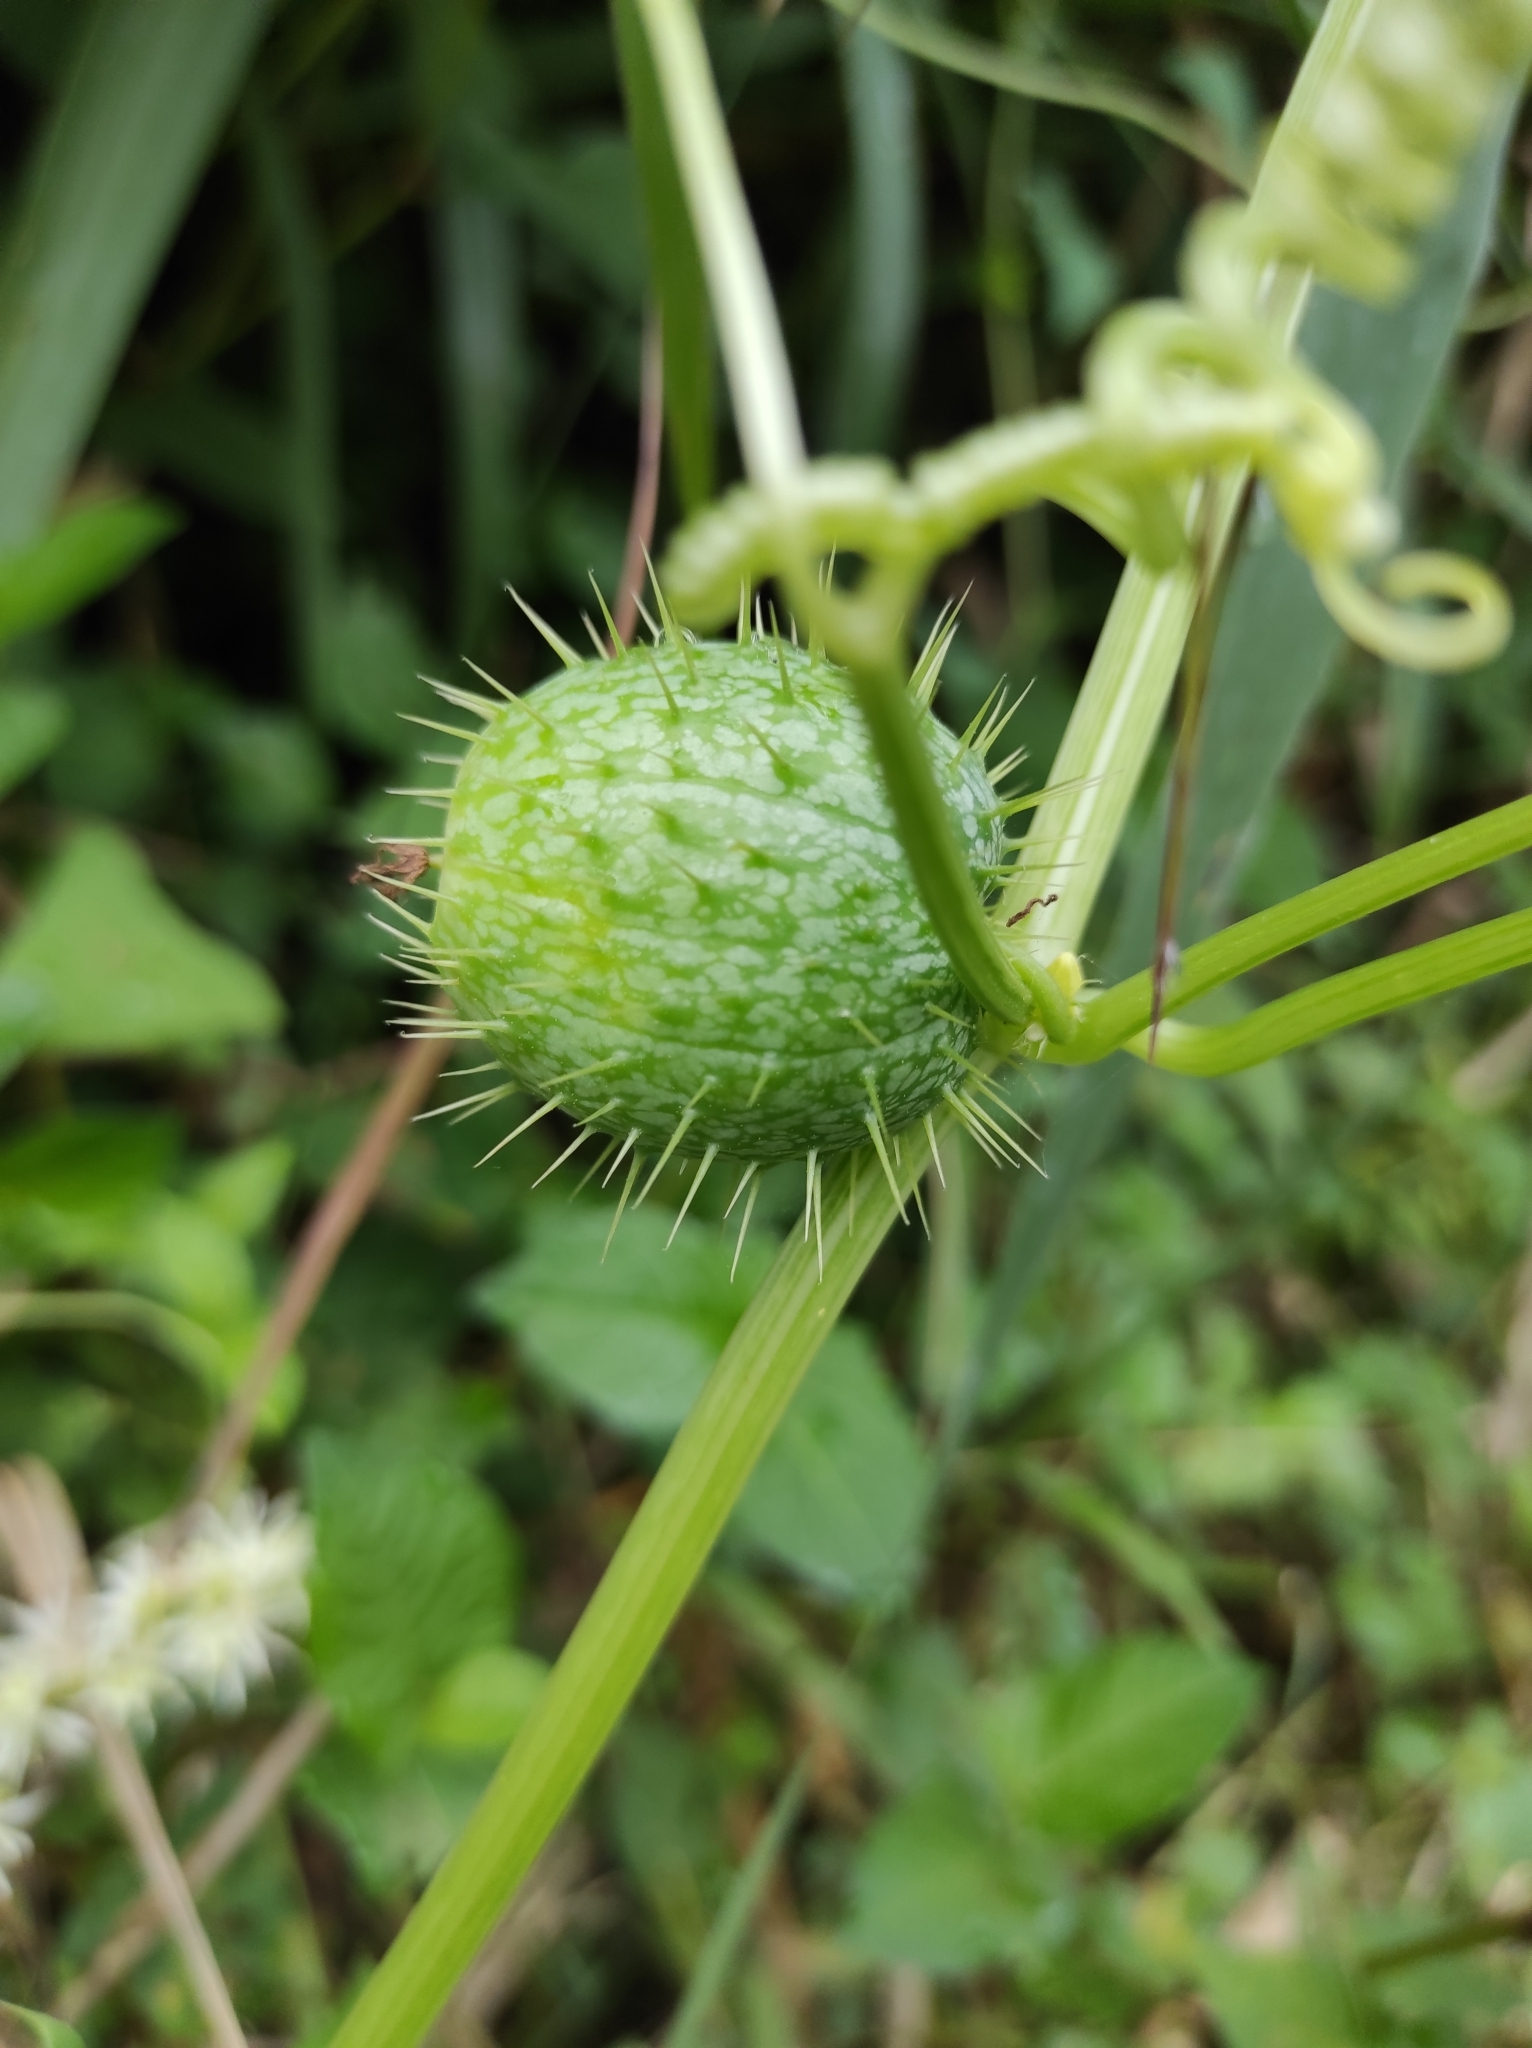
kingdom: Plantae
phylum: Tracheophyta
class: Magnoliopsida
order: Cucurbitales
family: Cucurbitaceae
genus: Echinocystis
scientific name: Echinocystis lobata
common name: Wild cucumber
